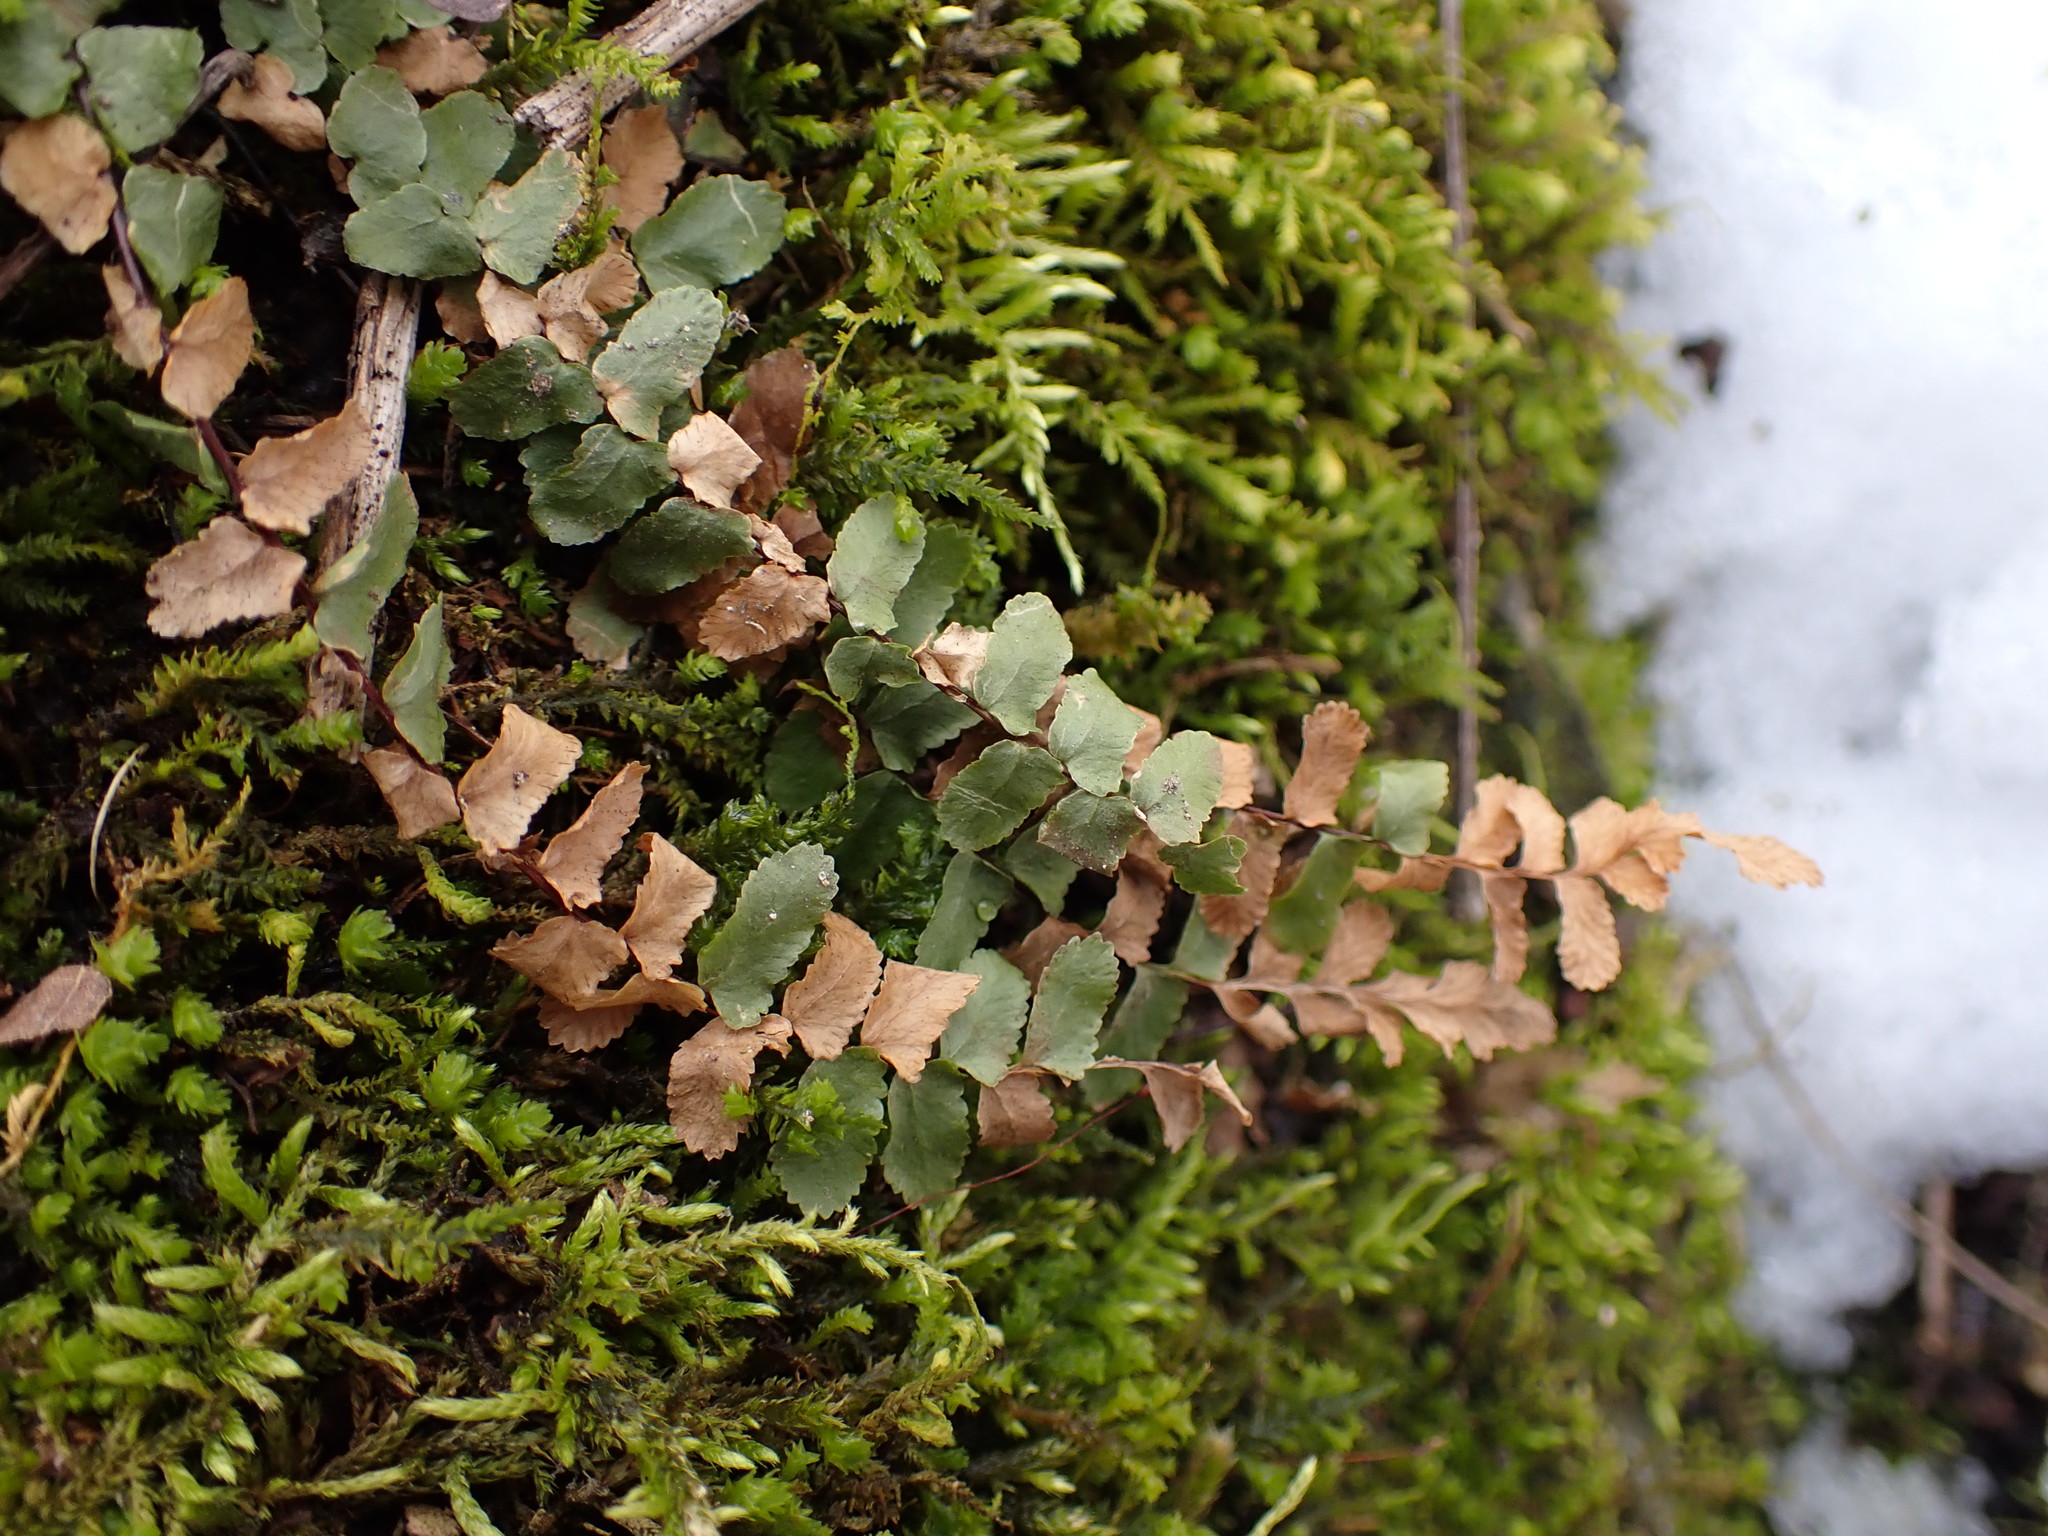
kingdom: Plantae
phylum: Tracheophyta
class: Polypodiopsida
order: Polypodiales
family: Aspleniaceae
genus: Asplenium
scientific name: Asplenium platyneuron
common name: Ebony spleenwort
